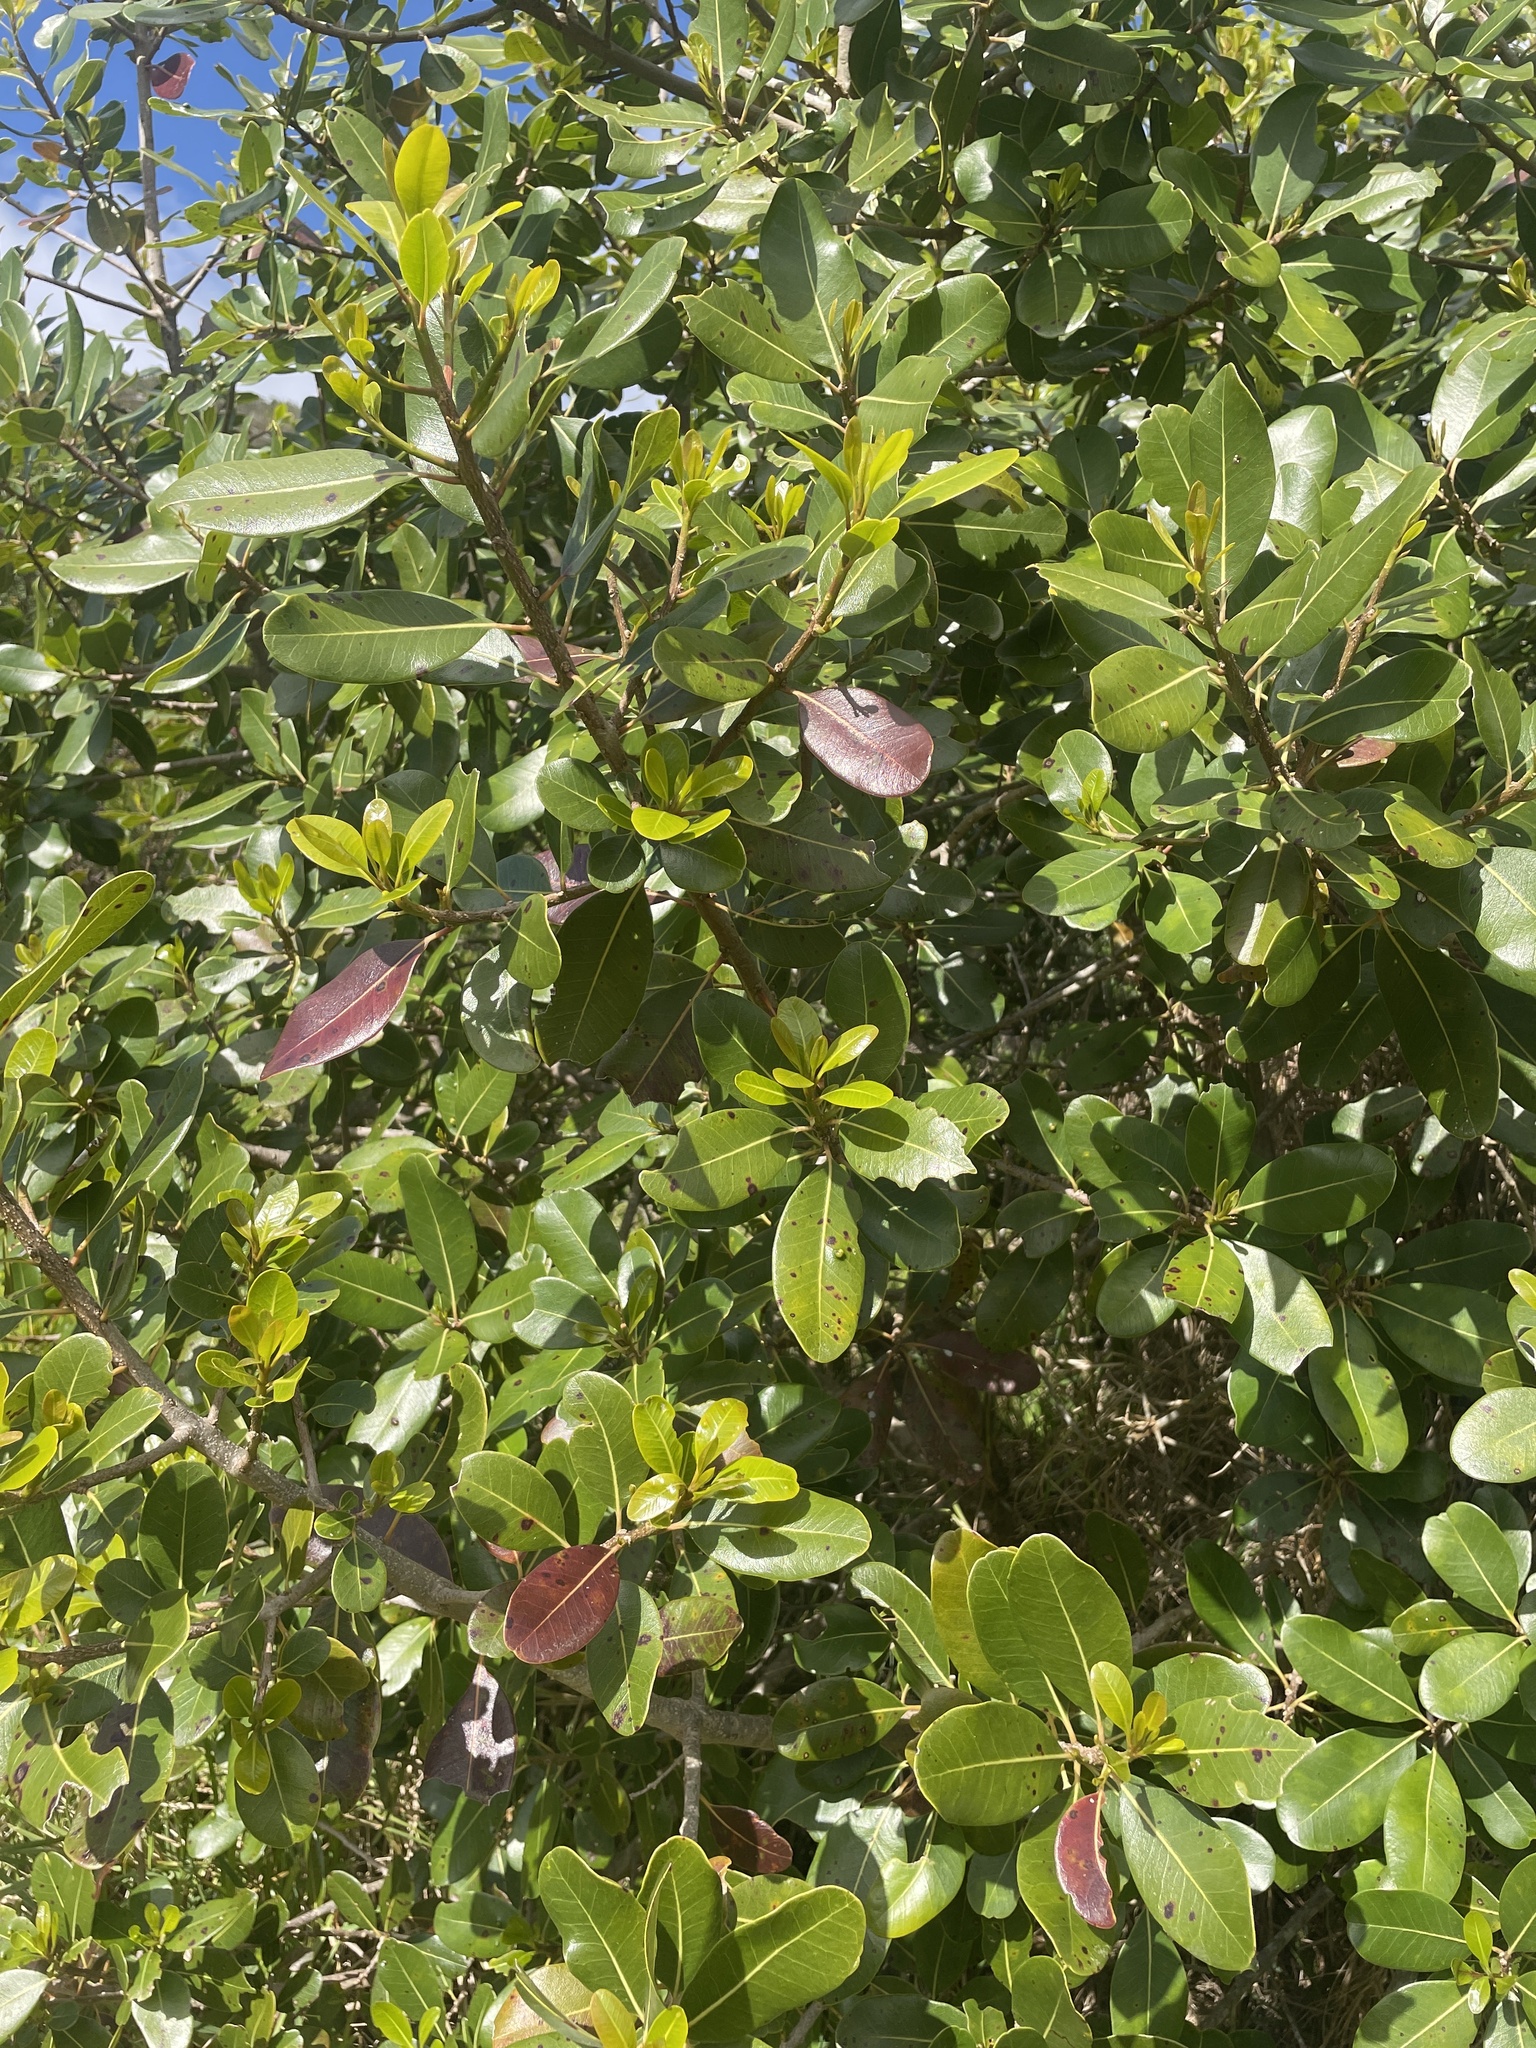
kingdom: Plantae
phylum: Tracheophyta
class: Magnoliopsida
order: Ericales
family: Sapotaceae
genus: Sideroxylon
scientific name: Sideroxylon inerme
